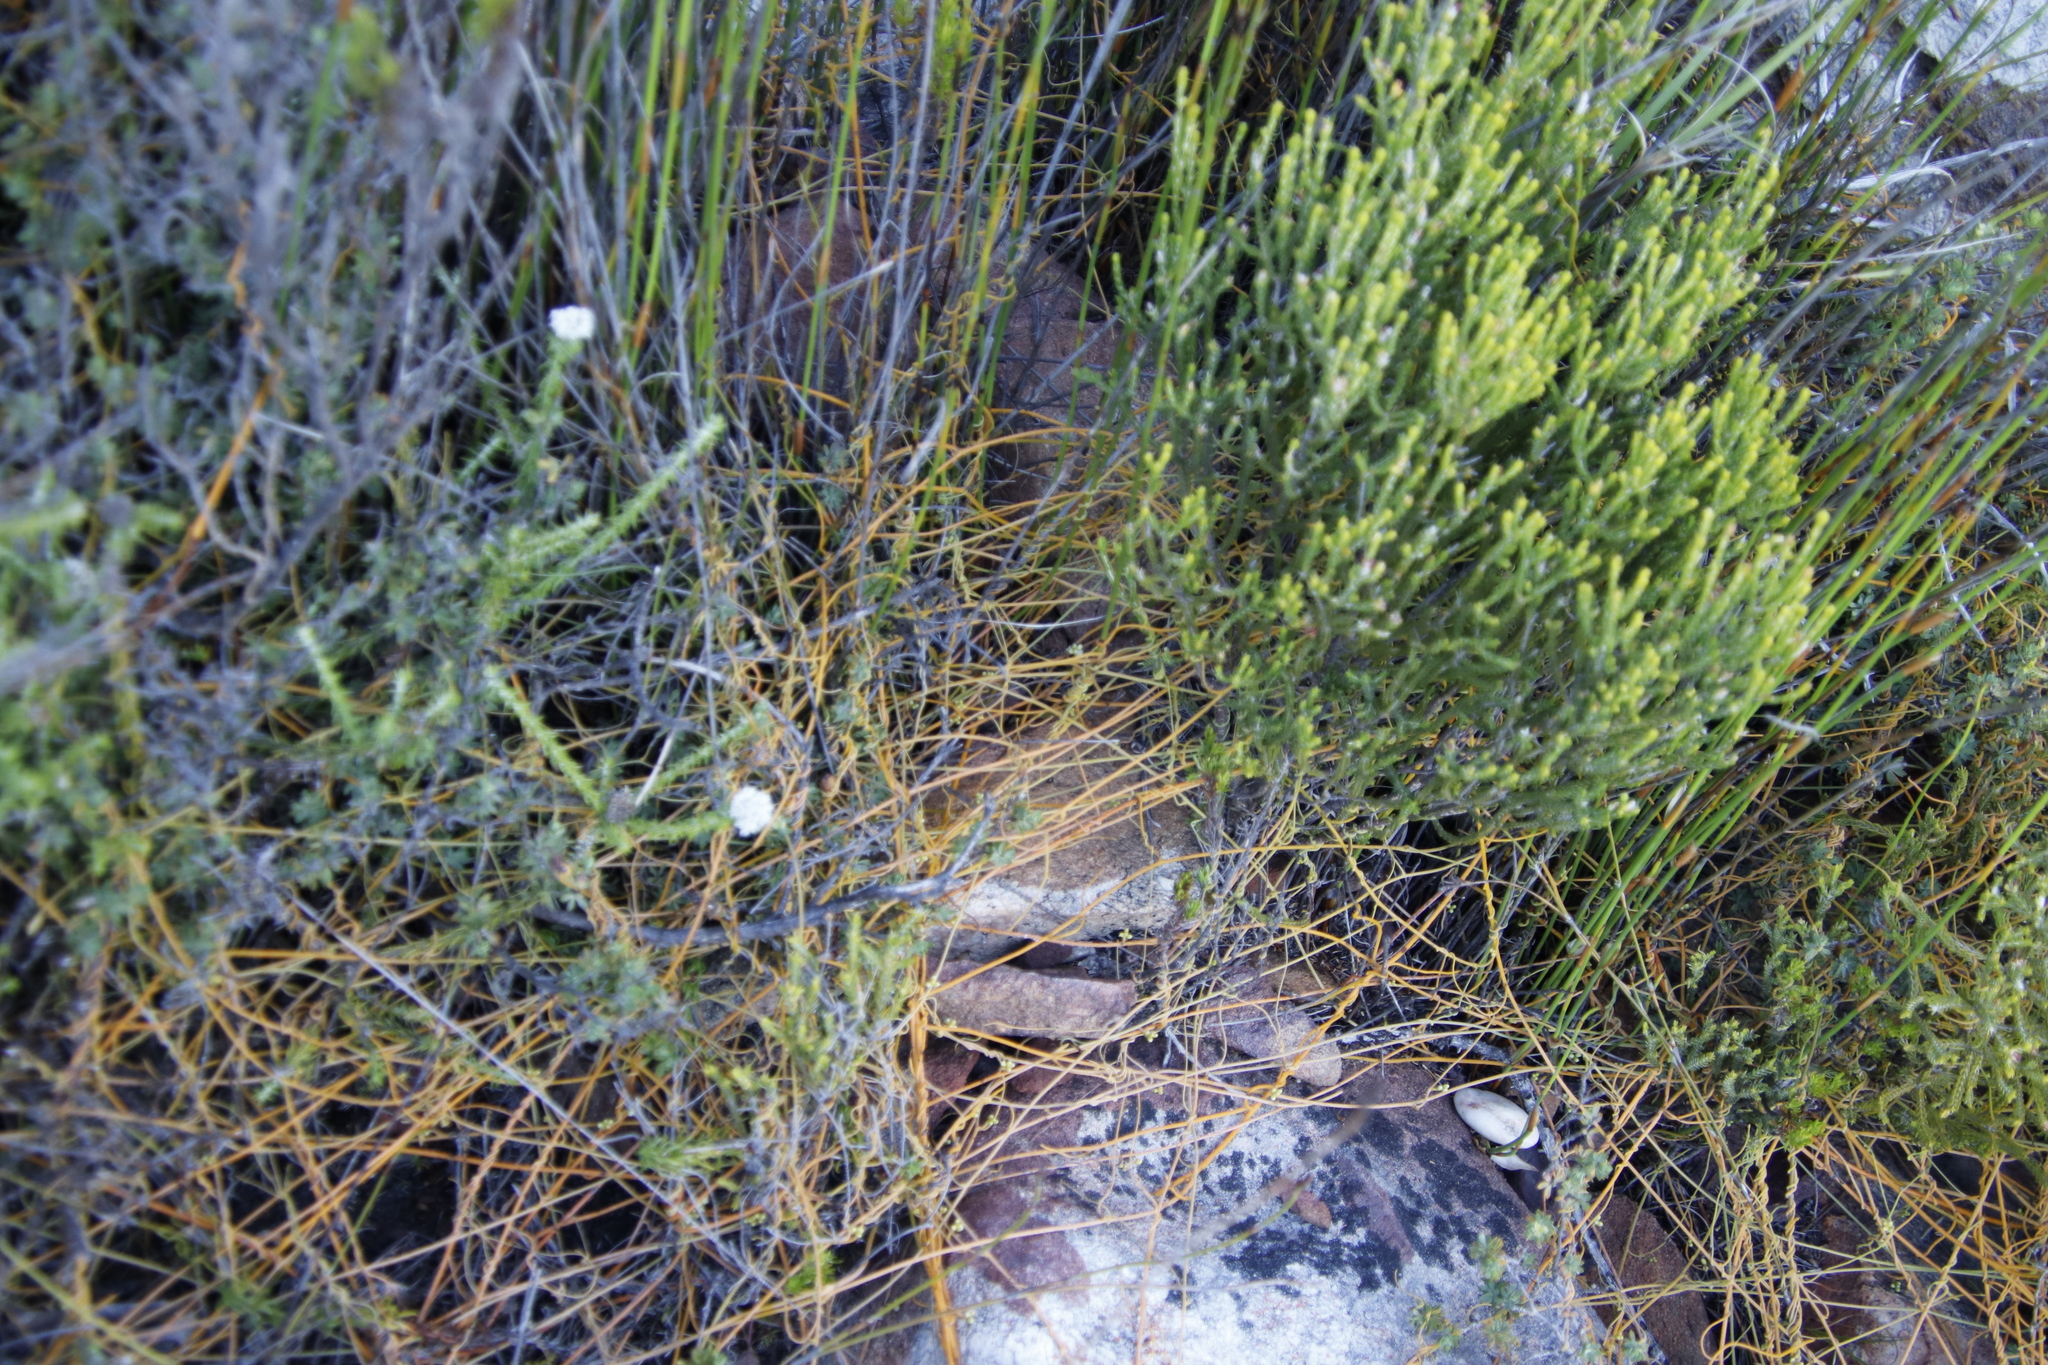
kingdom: Plantae
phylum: Tracheophyta
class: Magnoliopsida
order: Laurales
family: Lauraceae
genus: Cassytha
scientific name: Cassytha ciliolata
